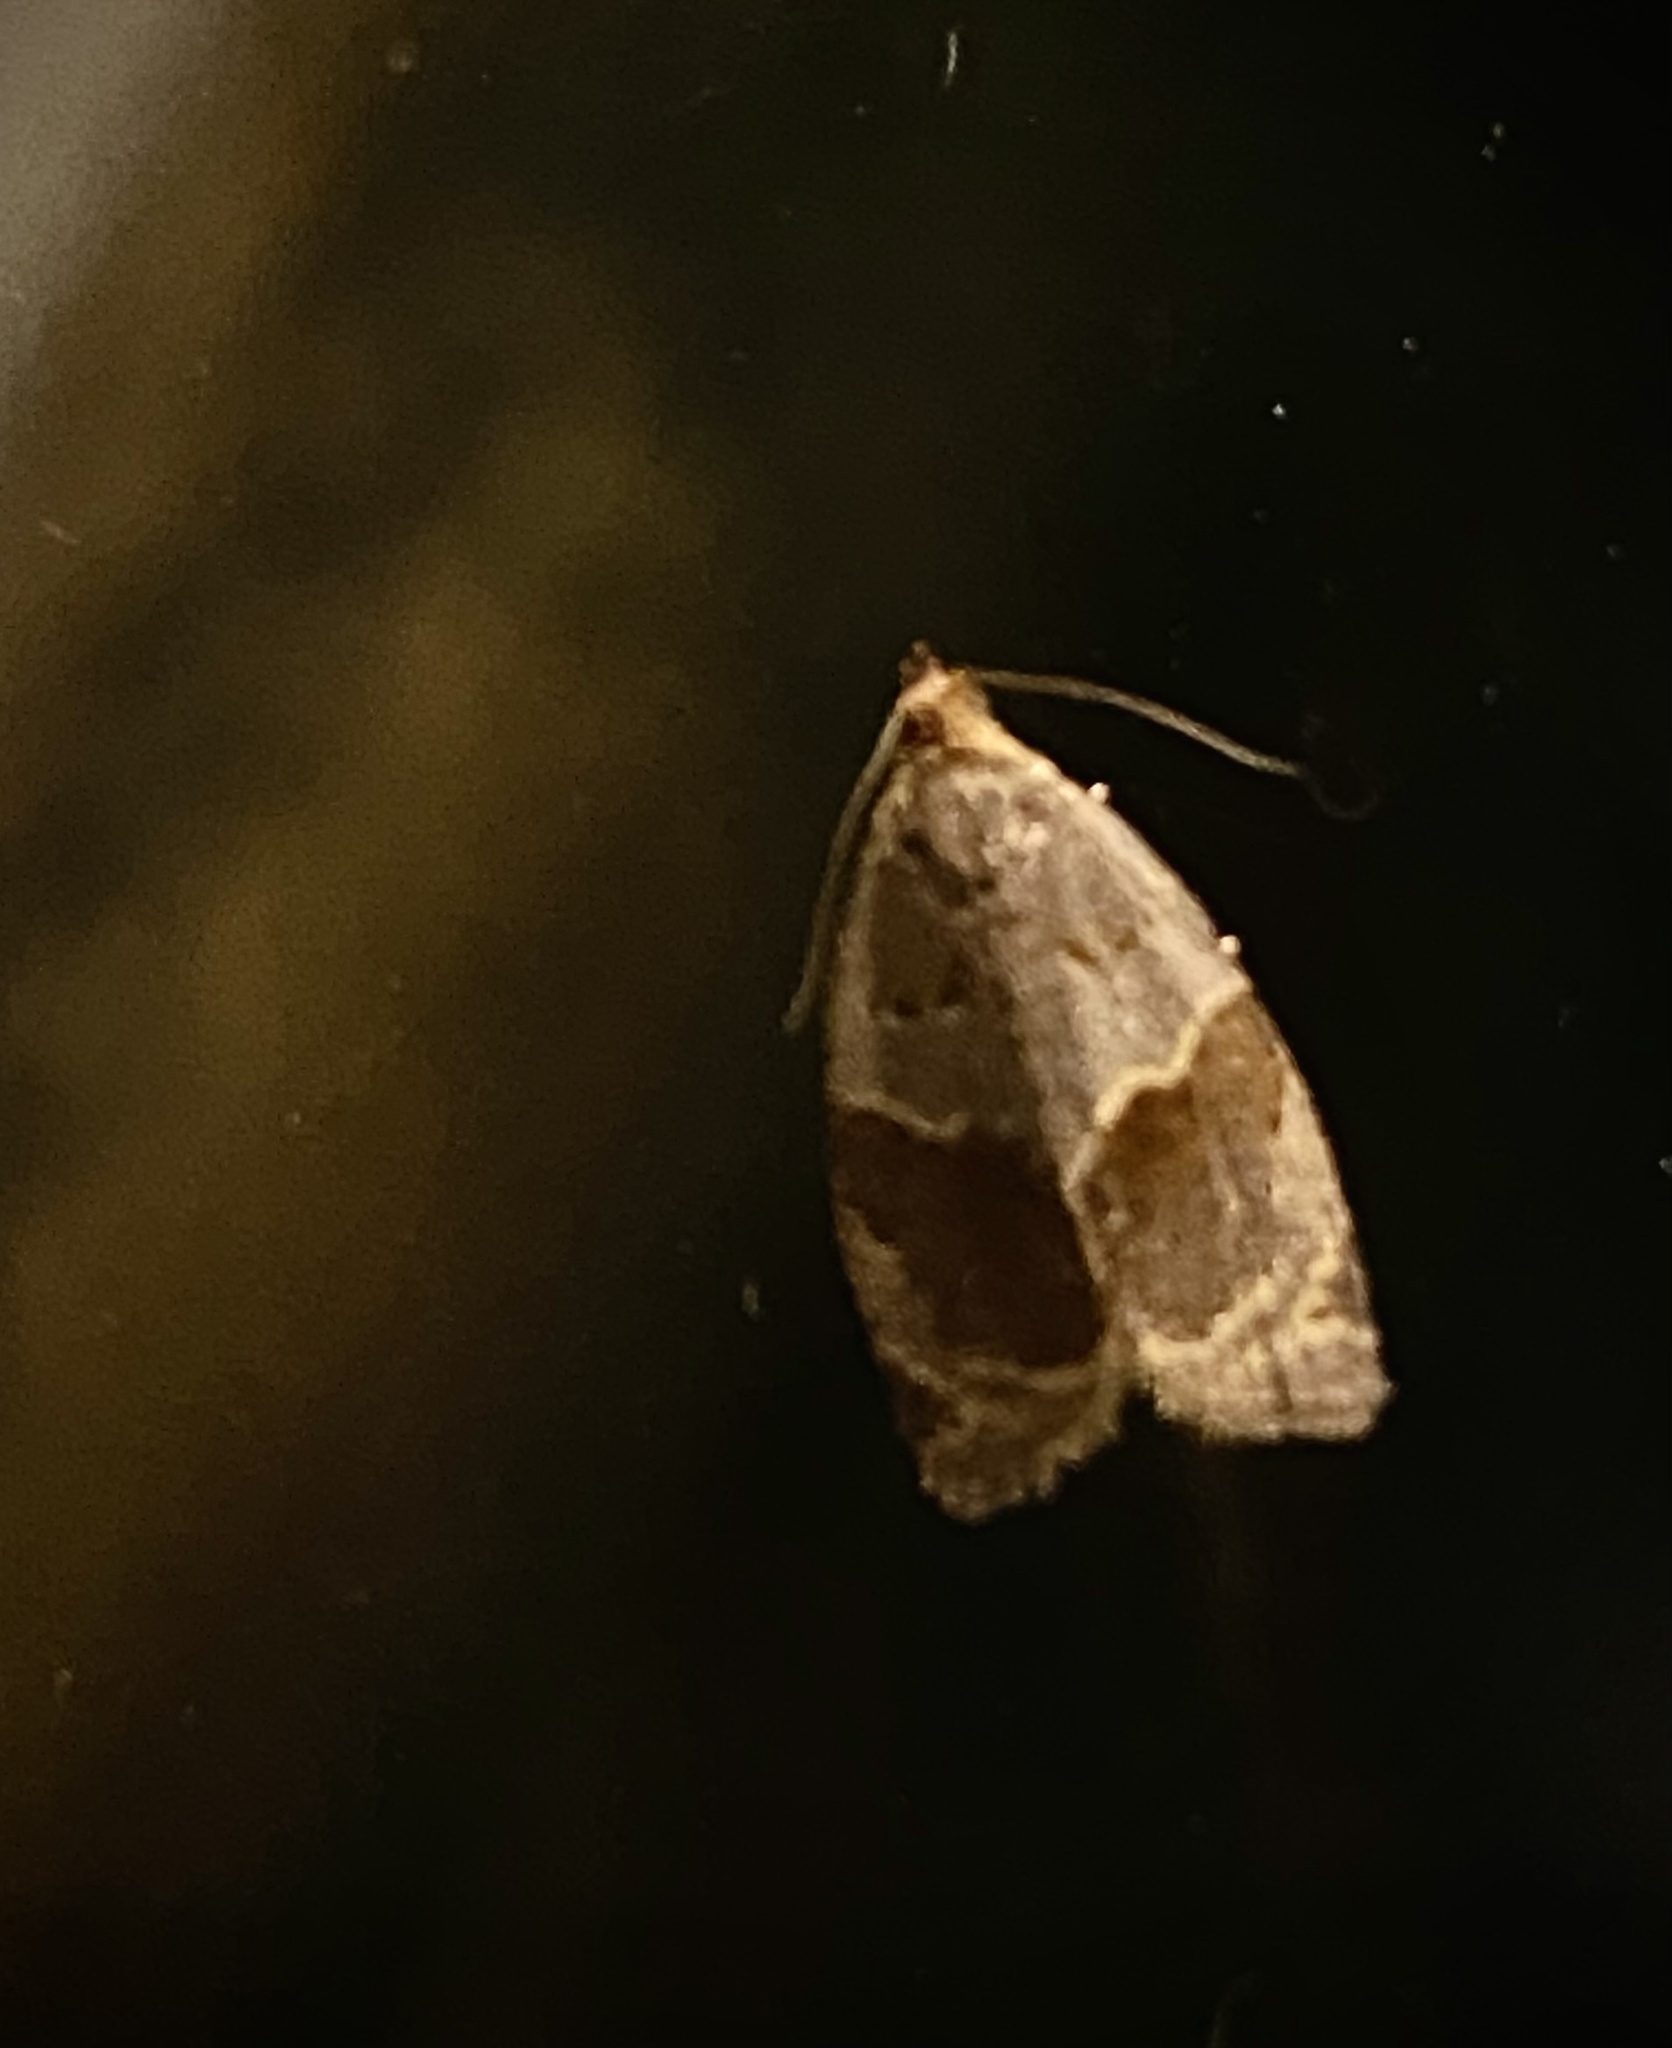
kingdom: Animalia
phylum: Arthropoda
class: Insecta
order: Lepidoptera
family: Tortricidae
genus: Clepsis
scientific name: Clepsis dumicolana
